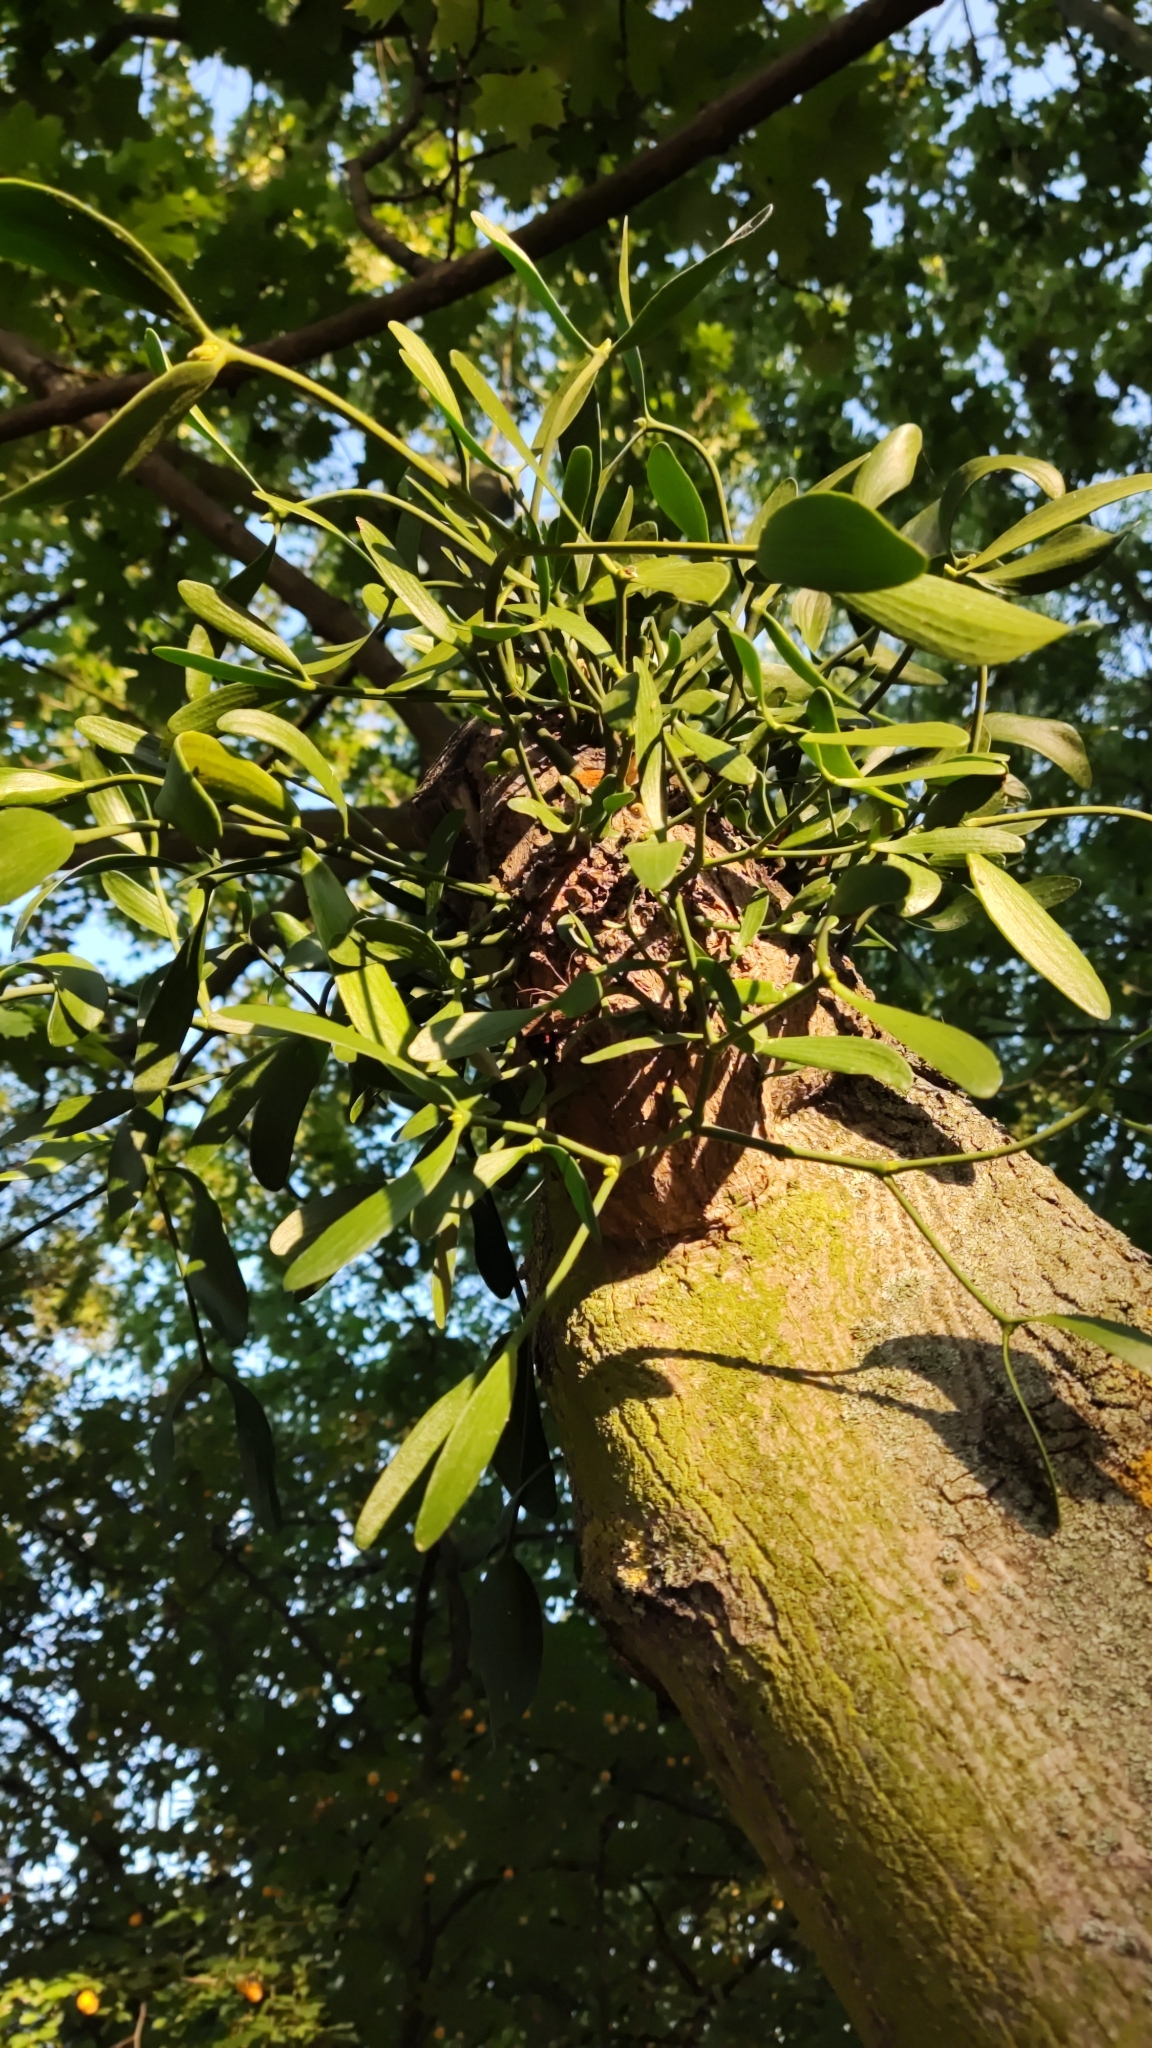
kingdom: Plantae
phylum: Tracheophyta
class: Magnoliopsida
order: Santalales
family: Viscaceae
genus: Viscum
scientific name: Viscum album
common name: Mistletoe
